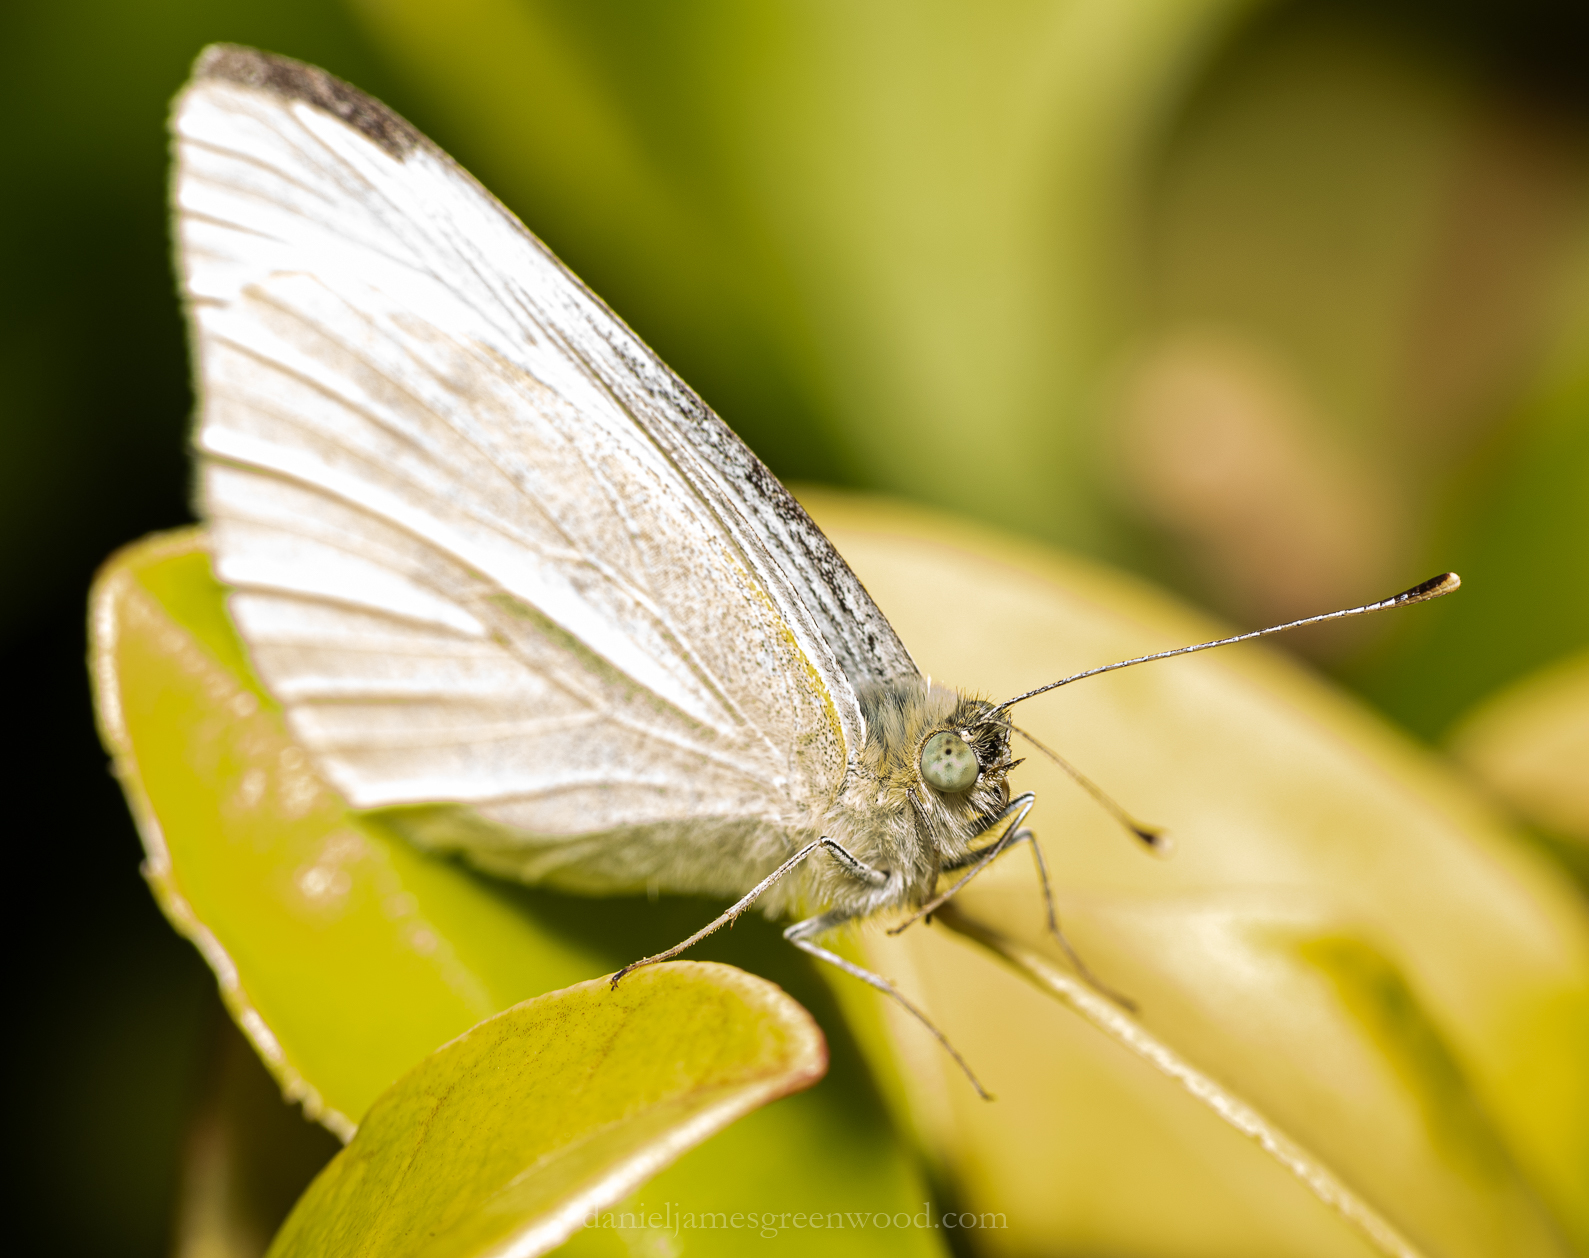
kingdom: Animalia
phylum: Arthropoda
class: Insecta
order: Lepidoptera
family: Pieridae
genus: Pieris
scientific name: Pieris rapae
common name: Small white
